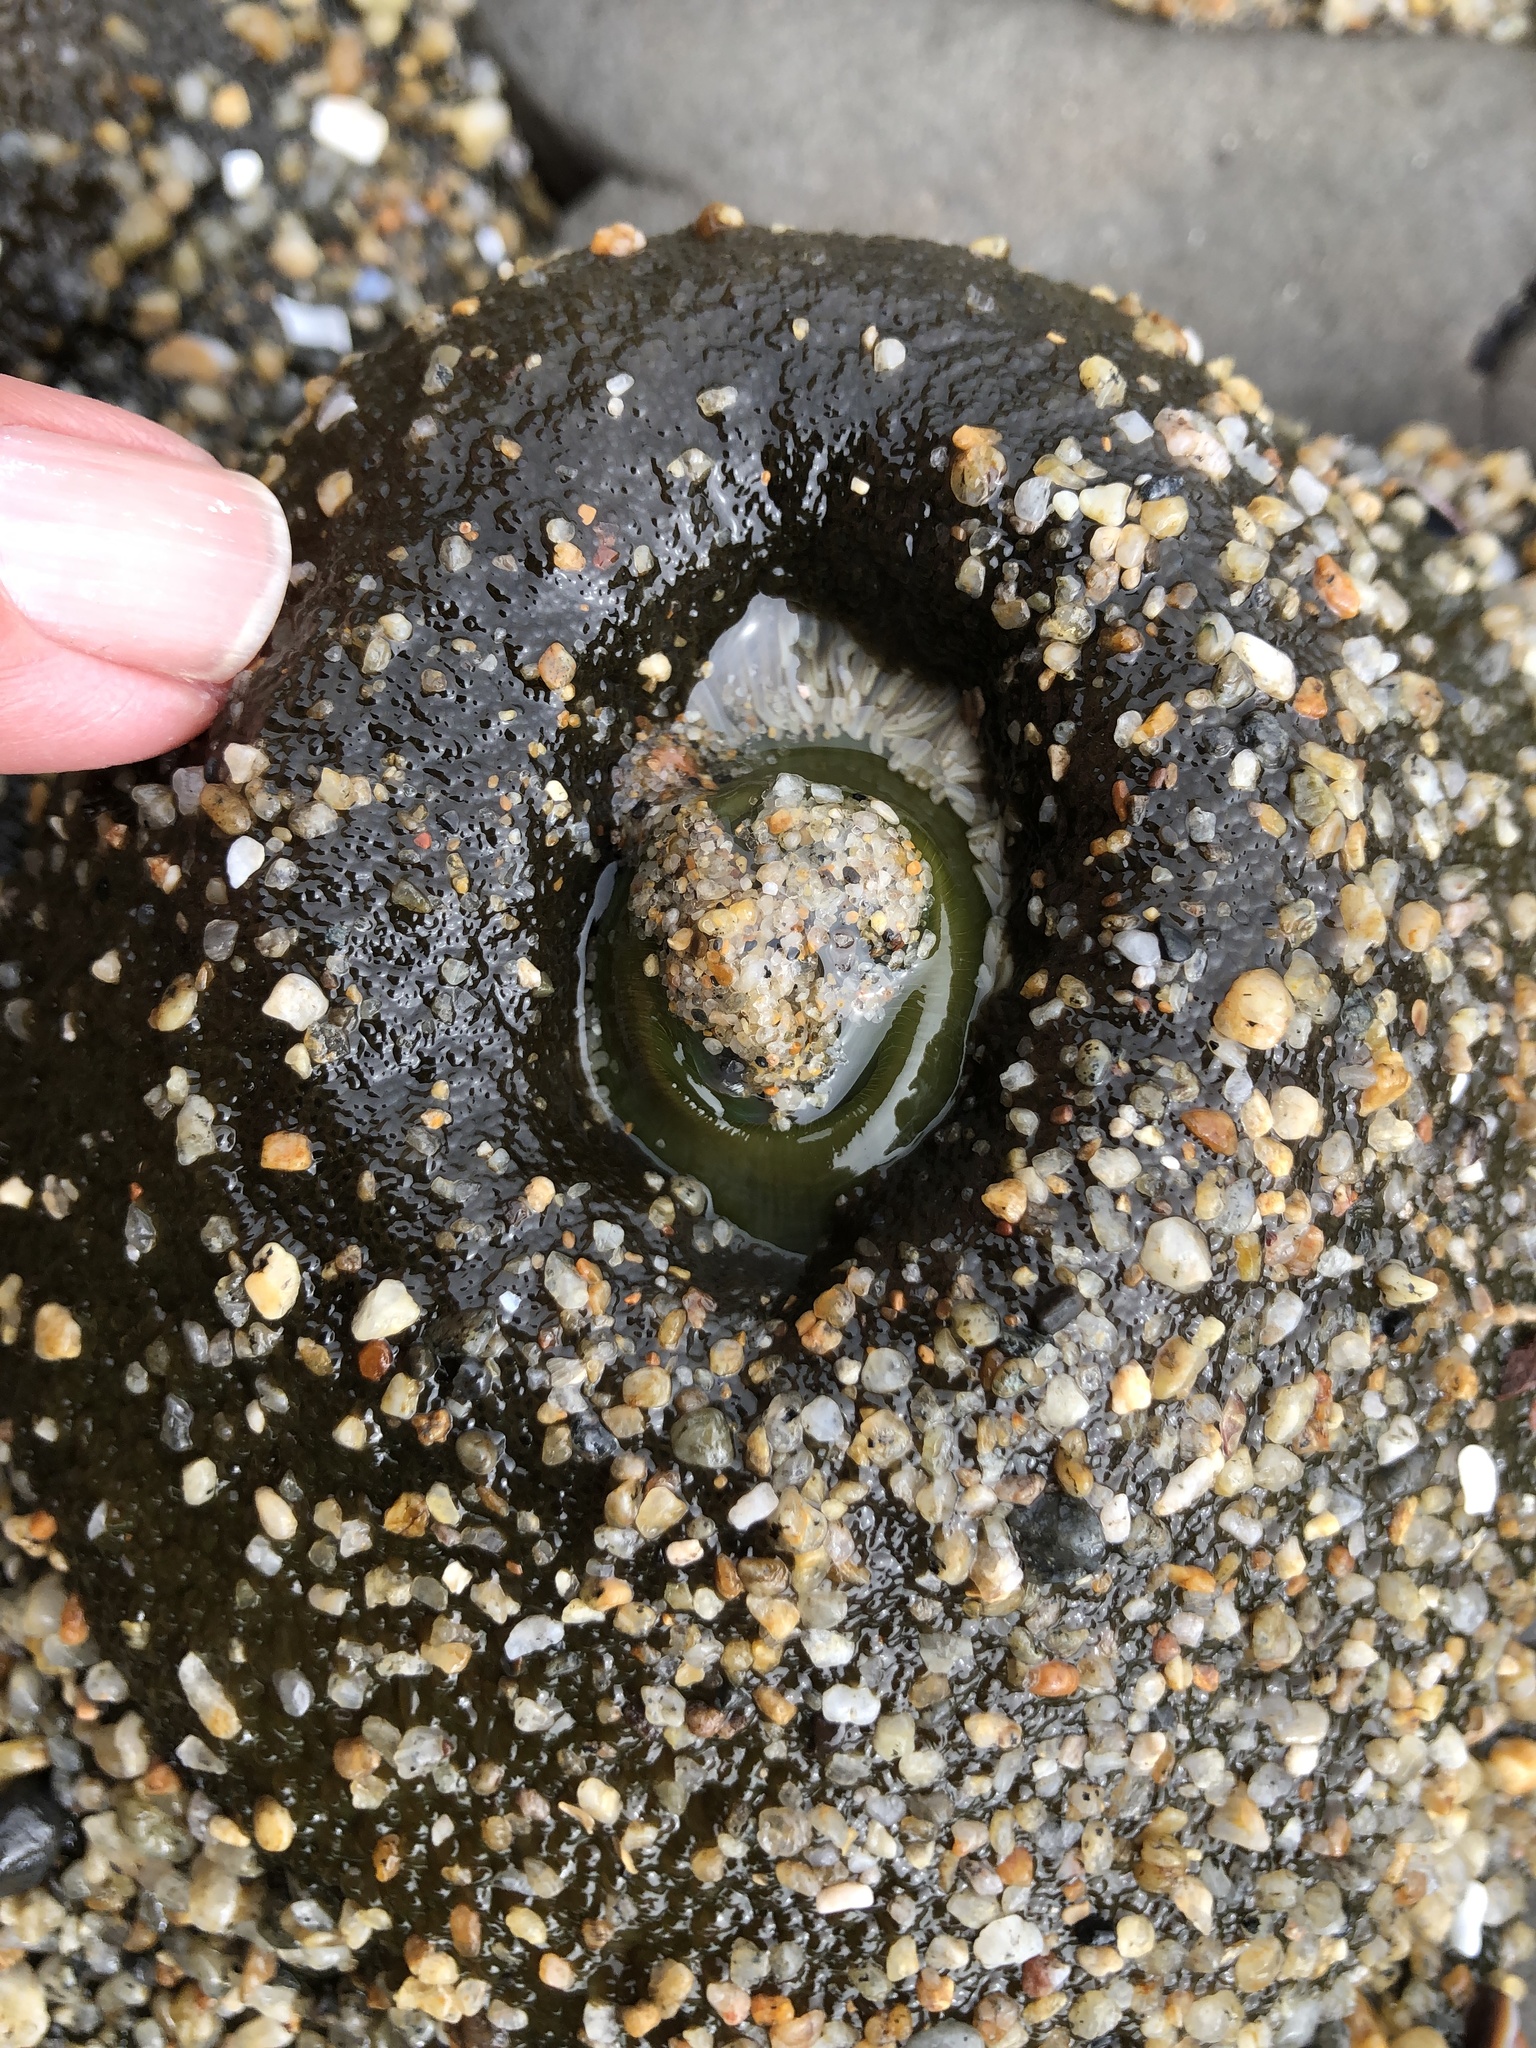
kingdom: Animalia
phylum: Cnidaria
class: Anthozoa
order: Actiniaria
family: Actiniidae
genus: Anthopleura
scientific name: Anthopleura xanthogrammica
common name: Giant green anemone
